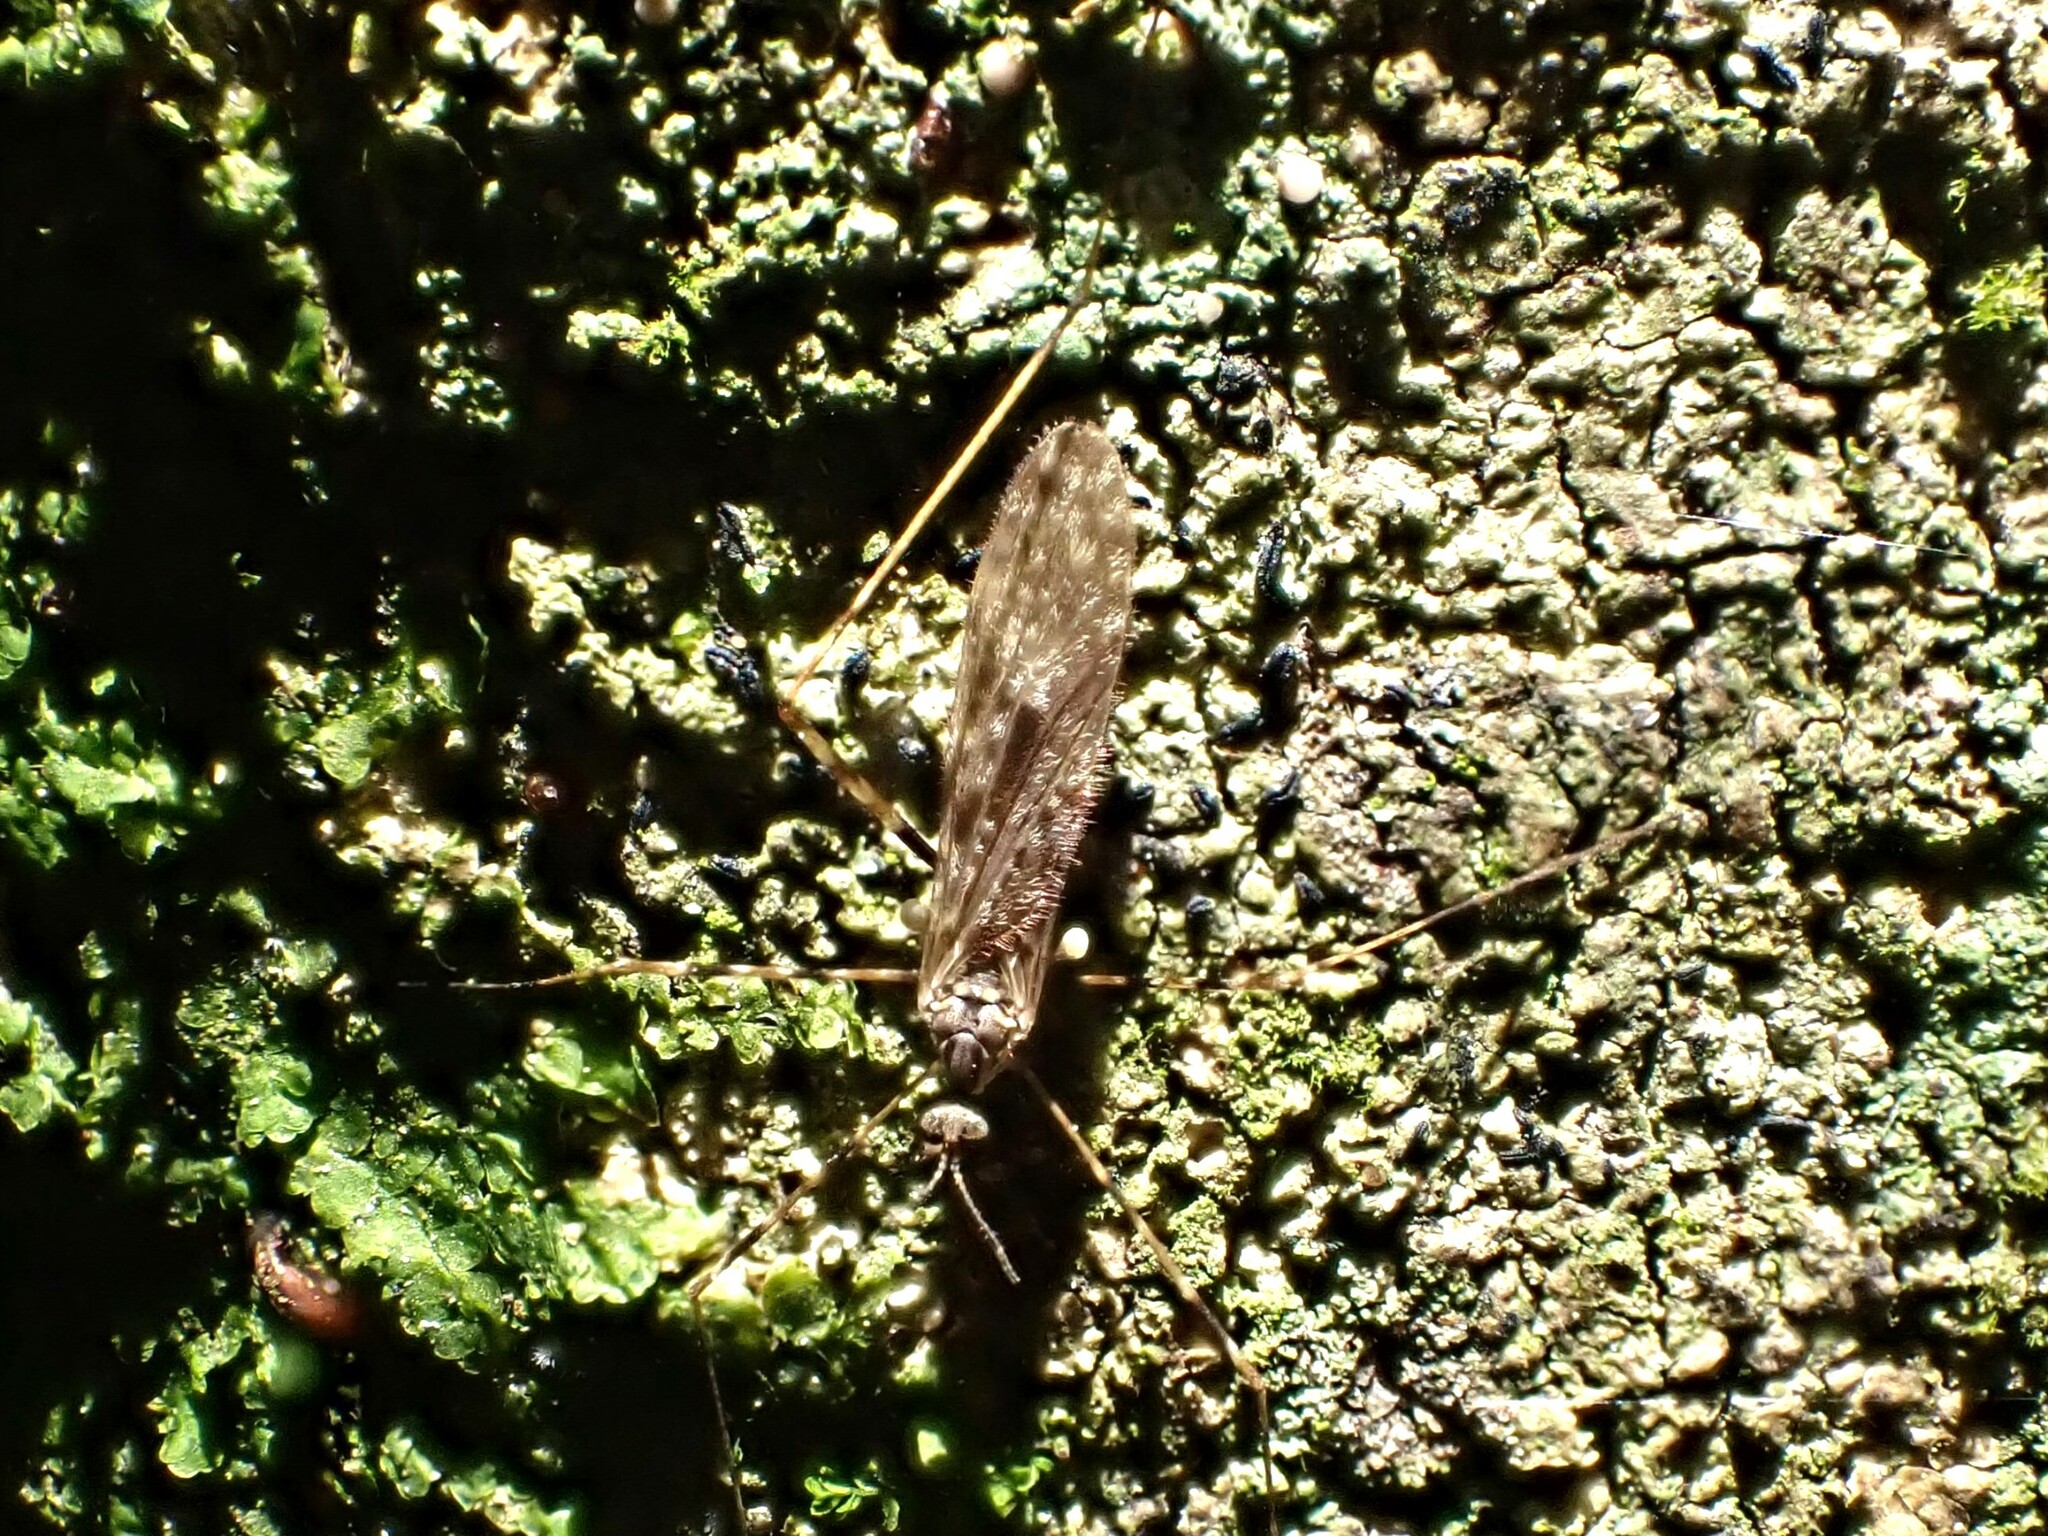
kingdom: Animalia
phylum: Arthropoda
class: Insecta
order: Diptera
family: Limoniidae
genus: Amphineurus
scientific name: Amphineurus hudsoni
